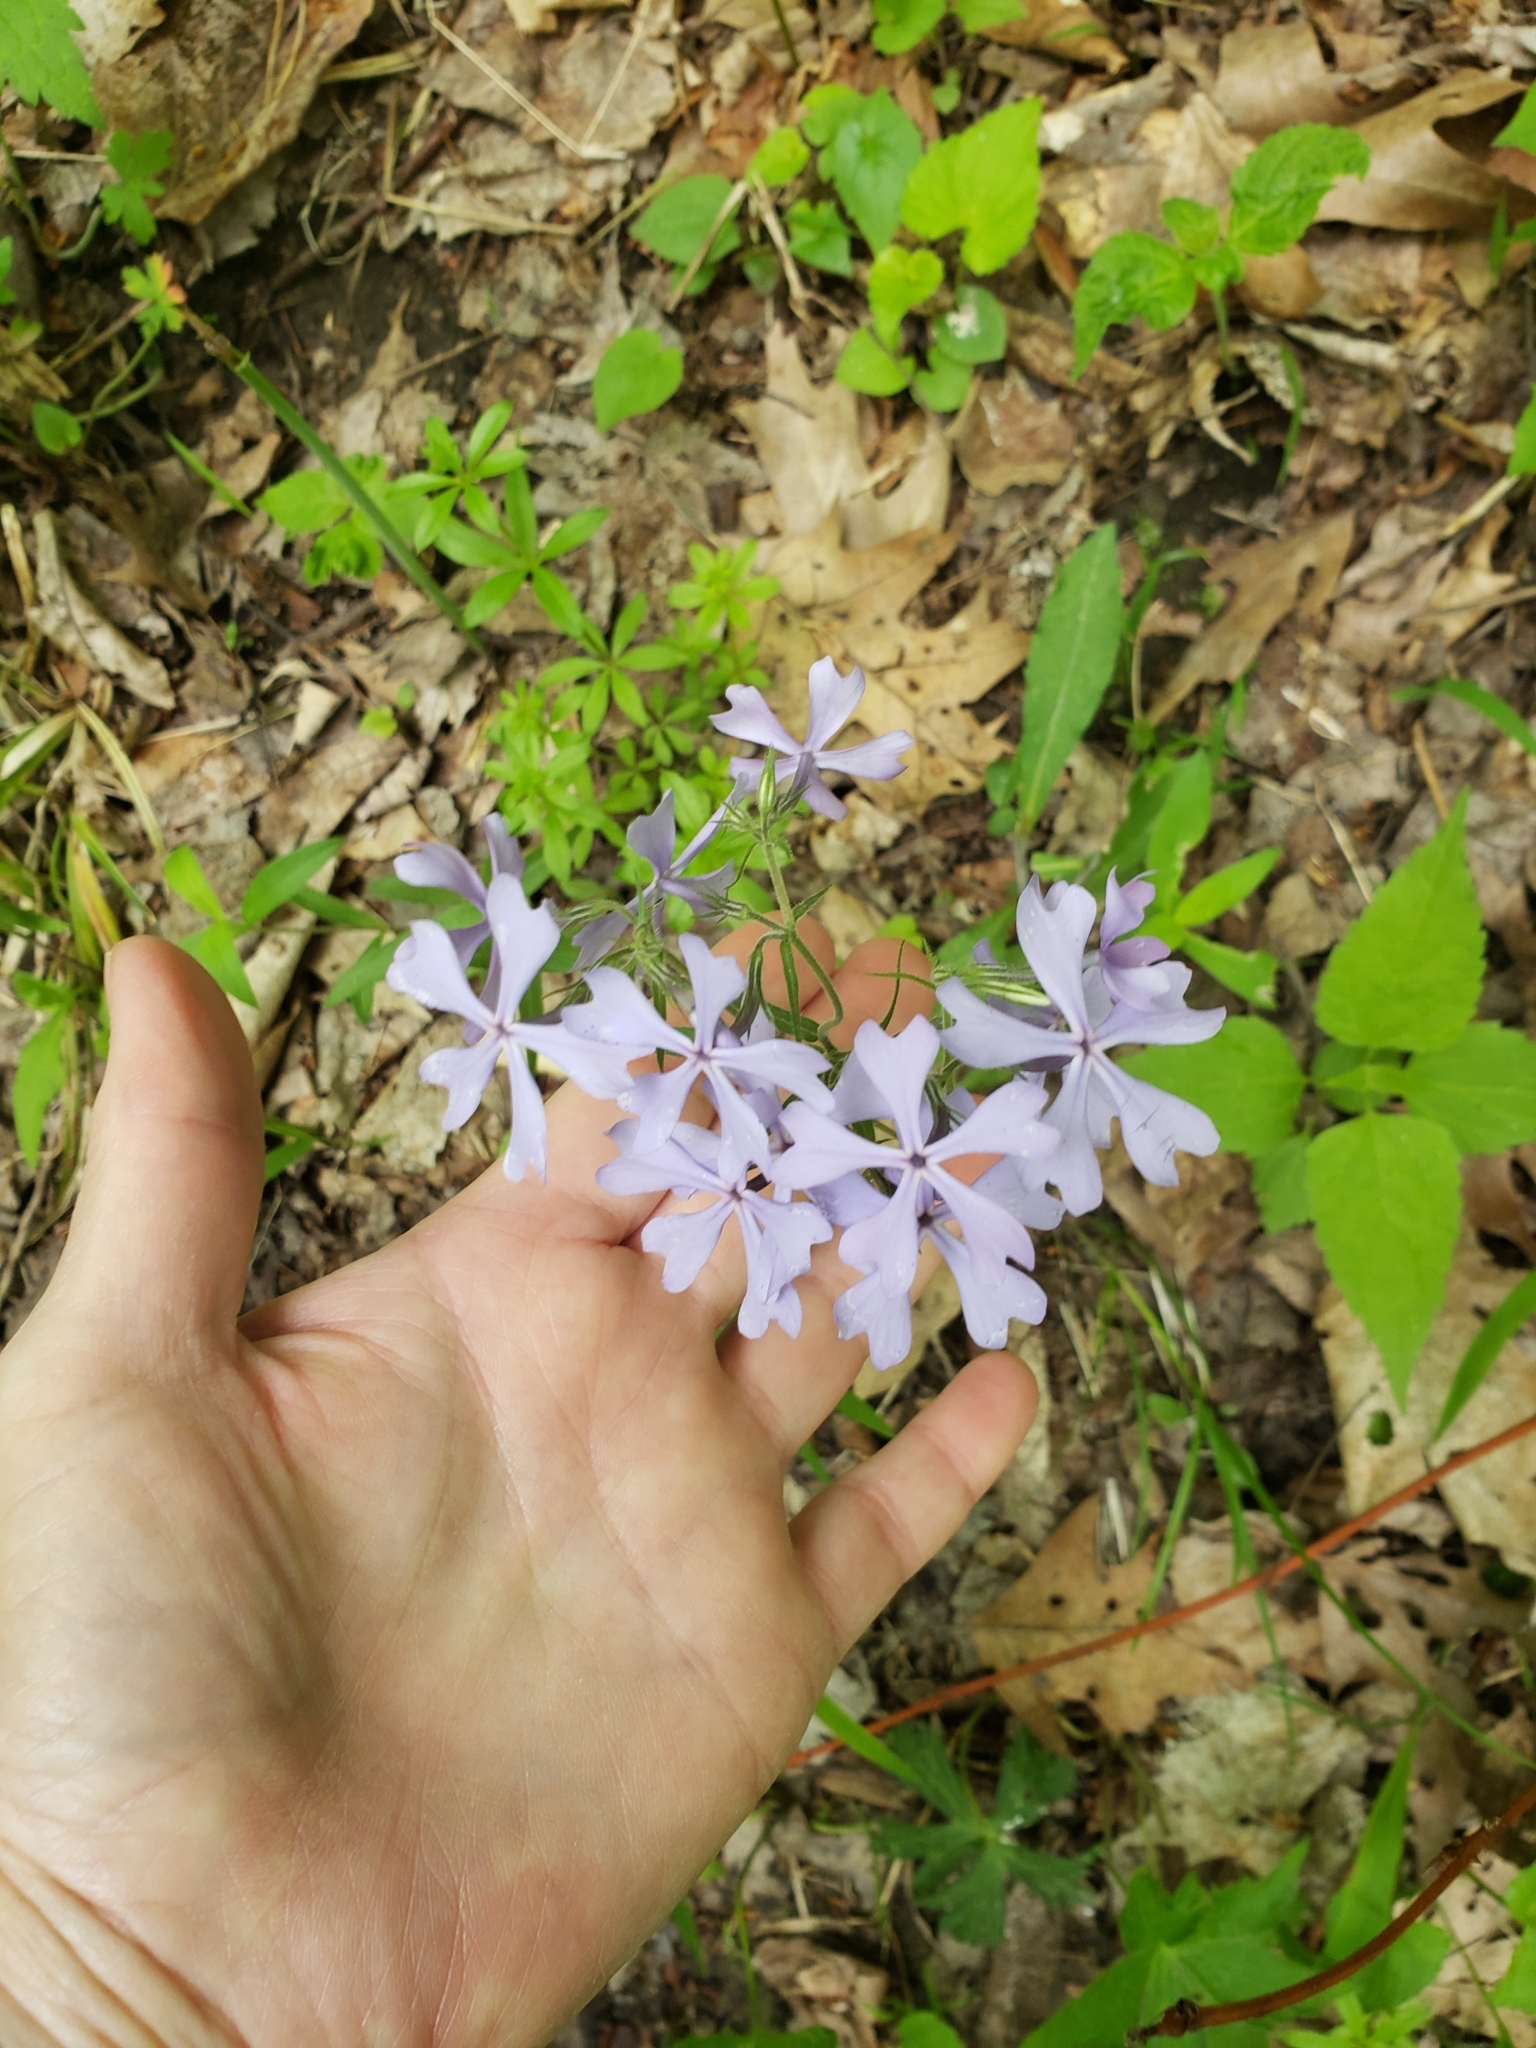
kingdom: Plantae
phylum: Tracheophyta
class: Magnoliopsida
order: Ericales
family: Polemoniaceae
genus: Phlox
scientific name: Phlox divaricata
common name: Blue phlox
